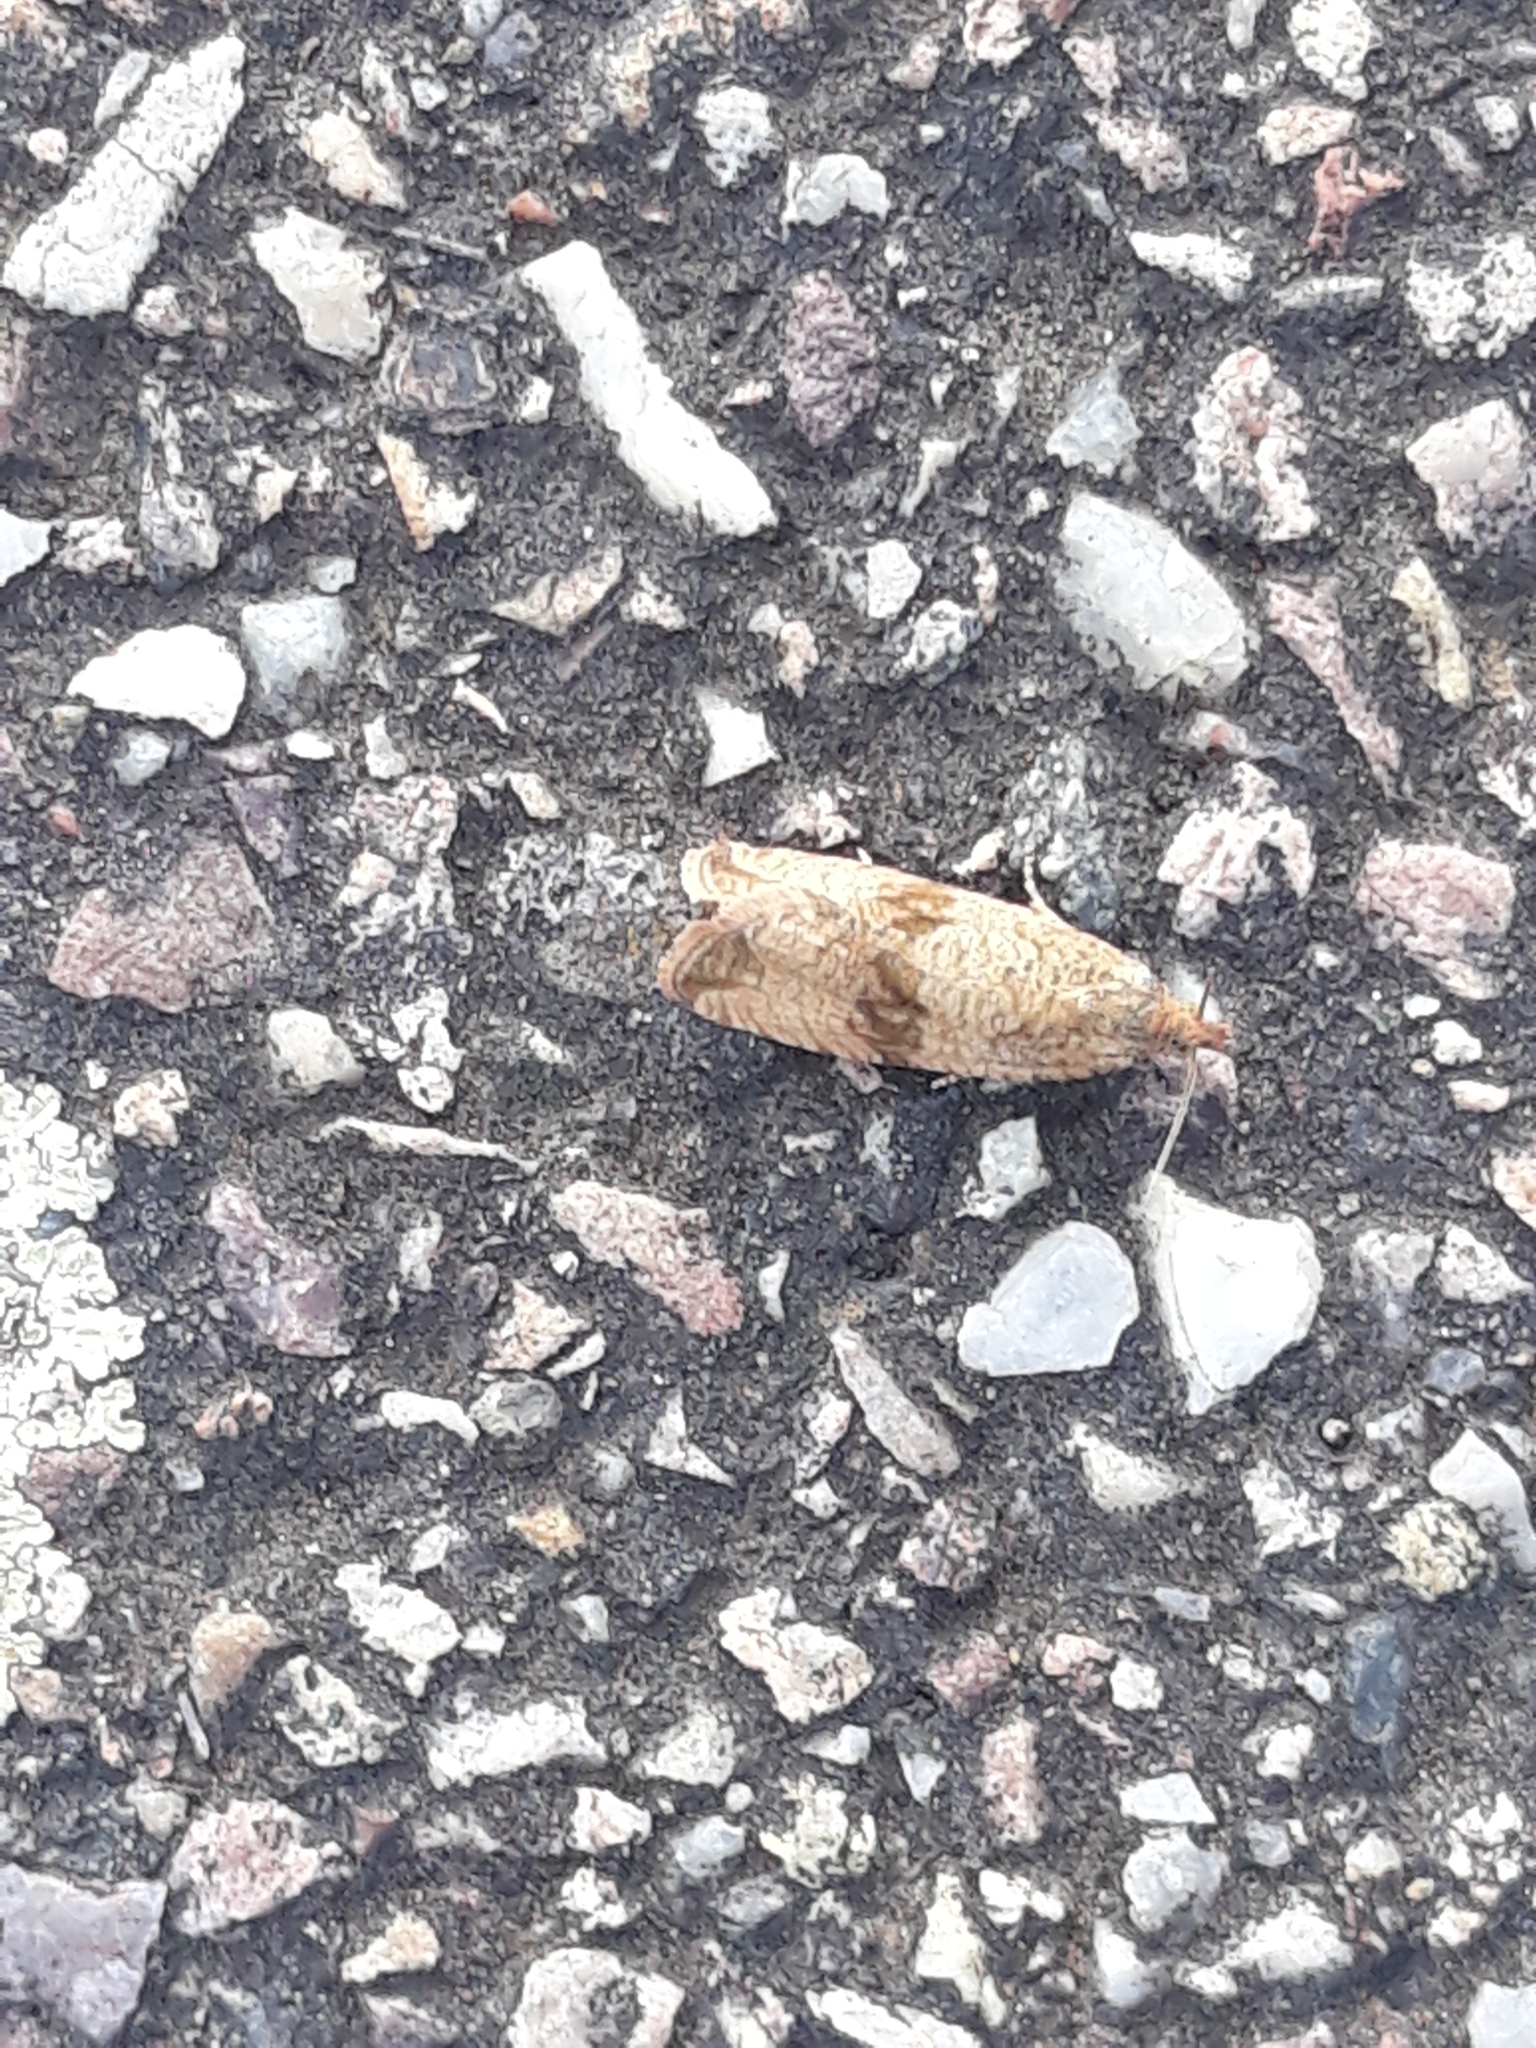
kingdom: Animalia
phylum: Arthropoda
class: Insecta
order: Lepidoptera
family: Tortricidae
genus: Celypha
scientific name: Celypha striana
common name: Barred marble
